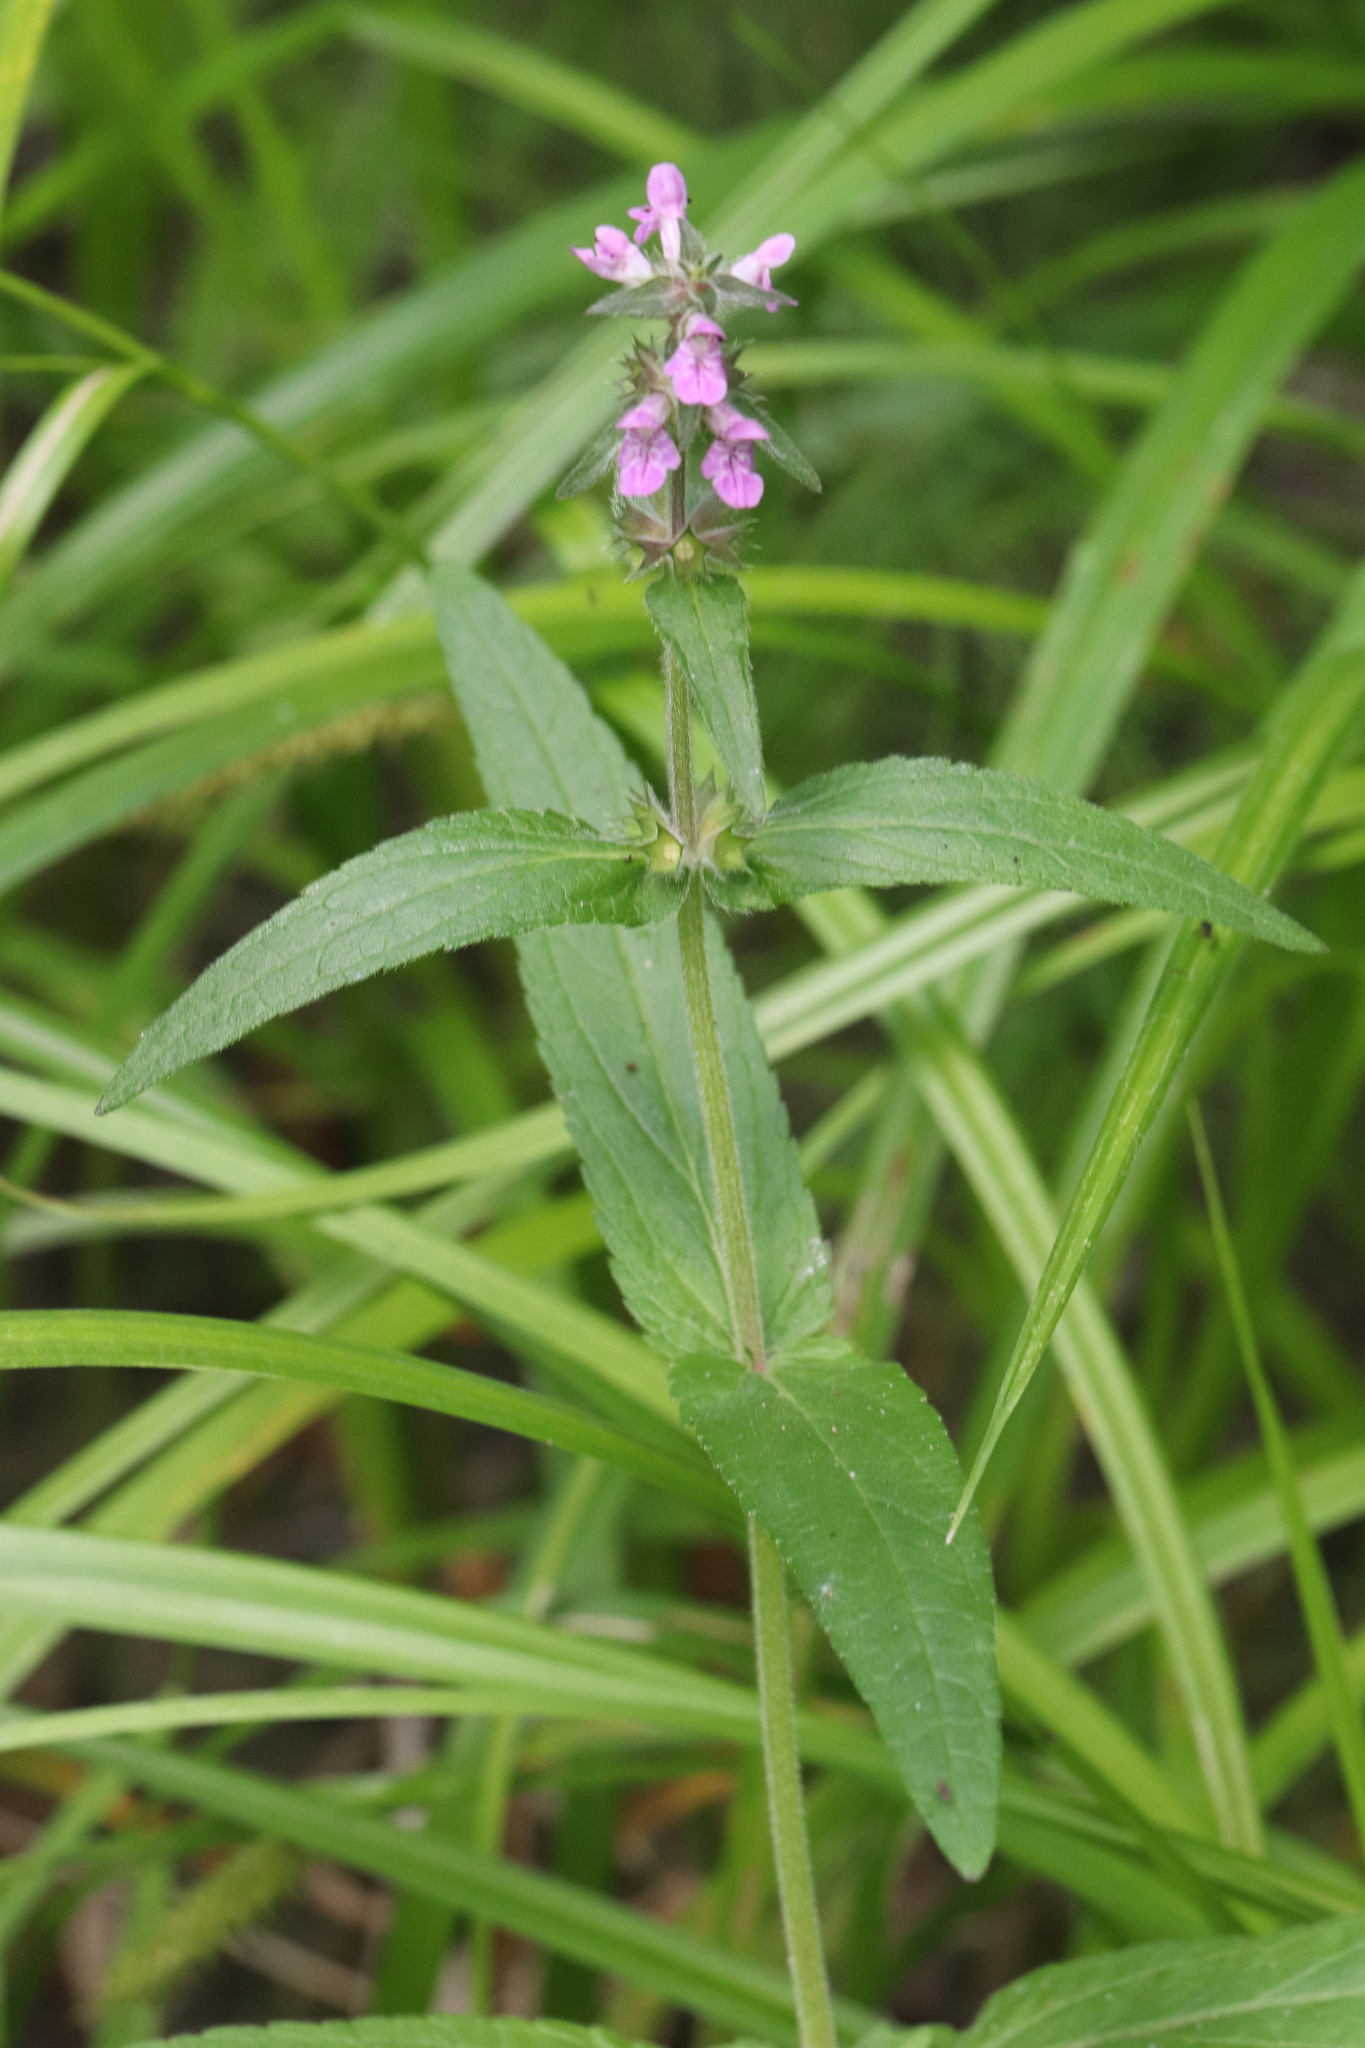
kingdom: Plantae
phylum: Tracheophyta
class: Magnoliopsida
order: Lamiales
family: Lamiaceae
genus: Stachys
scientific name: Stachys palustris
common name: Marsh woundwort
